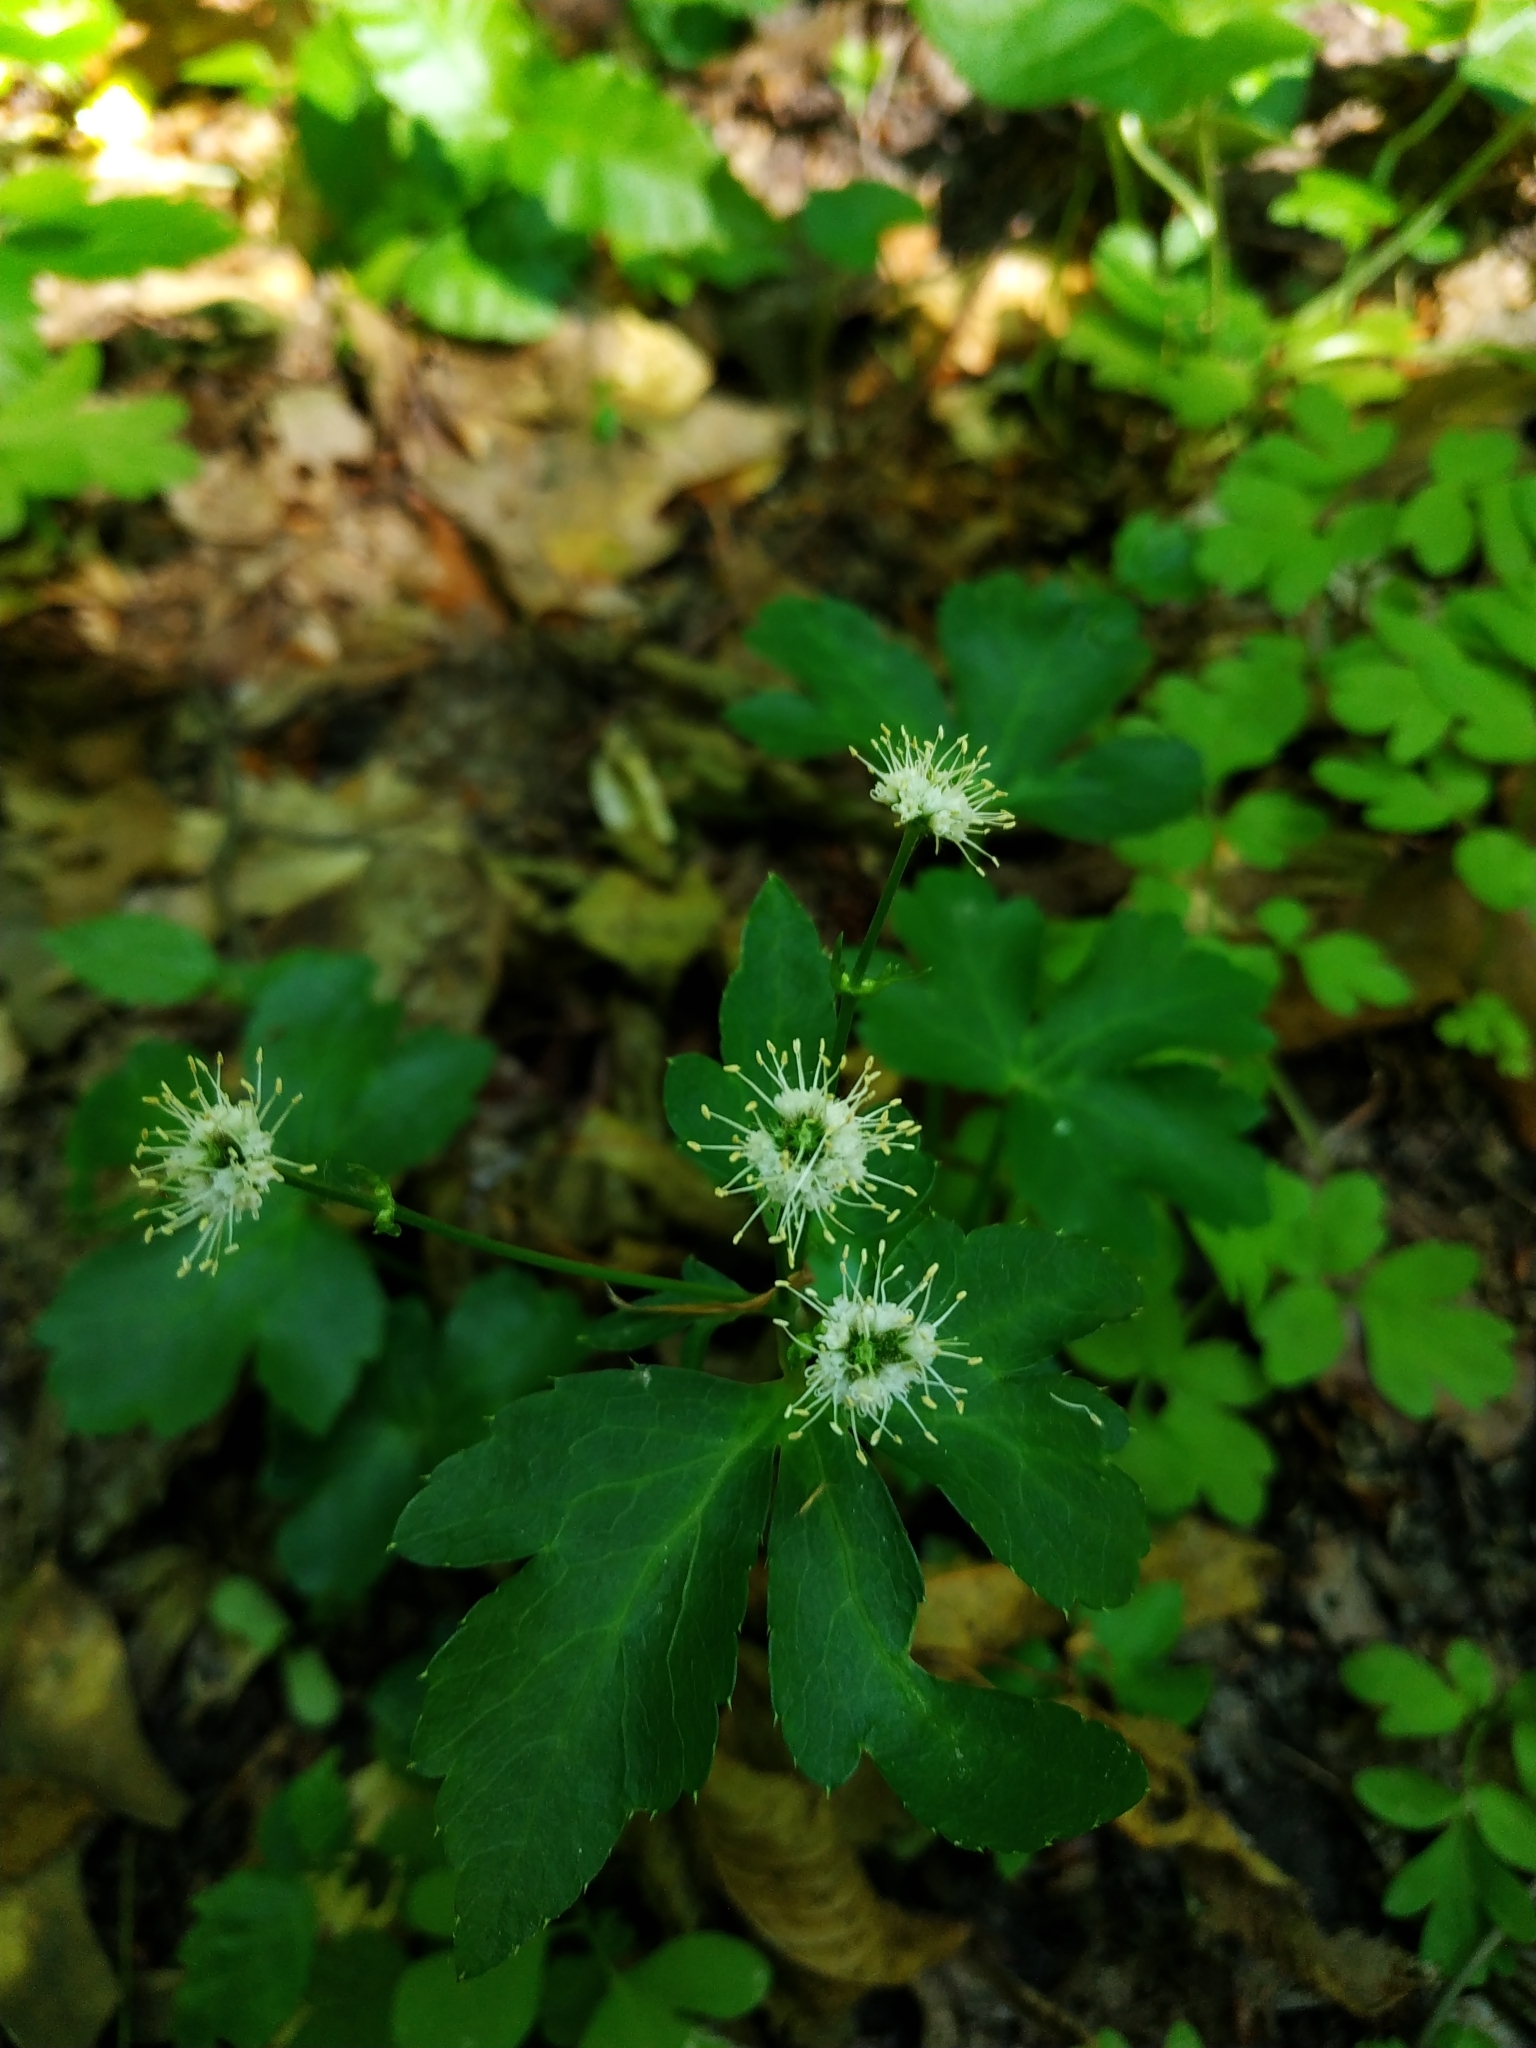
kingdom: Plantae
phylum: Tracheophyta
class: Magnoliopsida
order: Apiales
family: Apiaceae
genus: Sanicula
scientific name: Sanicula europaea
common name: Sanicle
